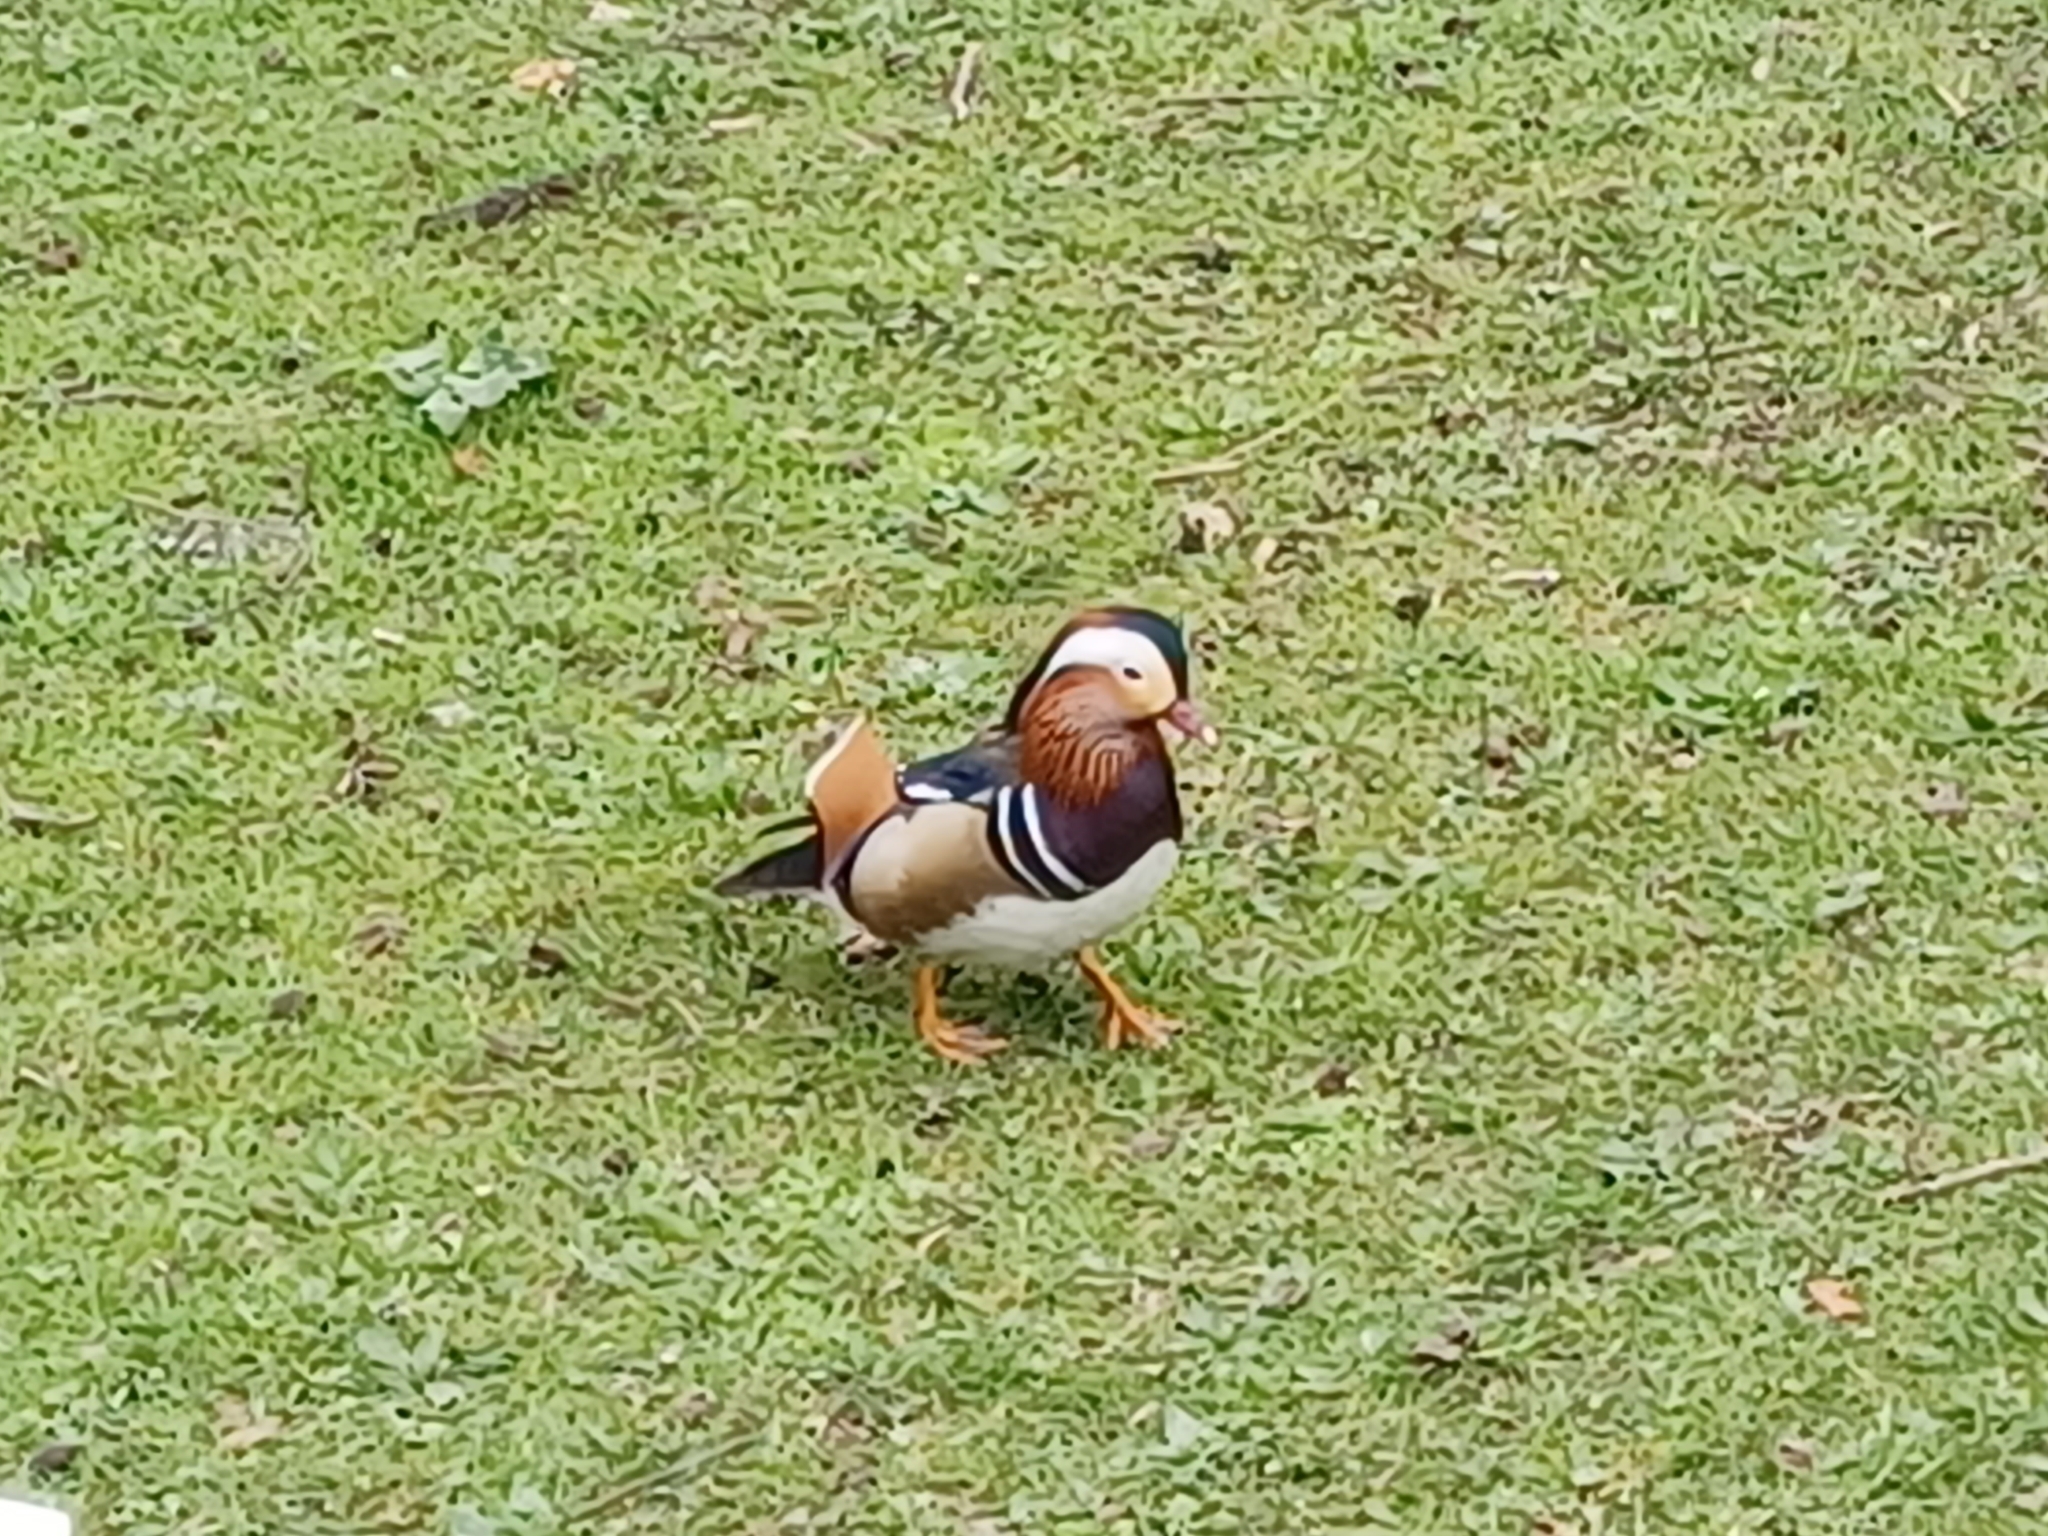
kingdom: Animalia
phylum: Chordata
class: Aves
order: Anseriformes
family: Anatidae
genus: Aix
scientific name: Aix galericulata
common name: Mandarin duck
